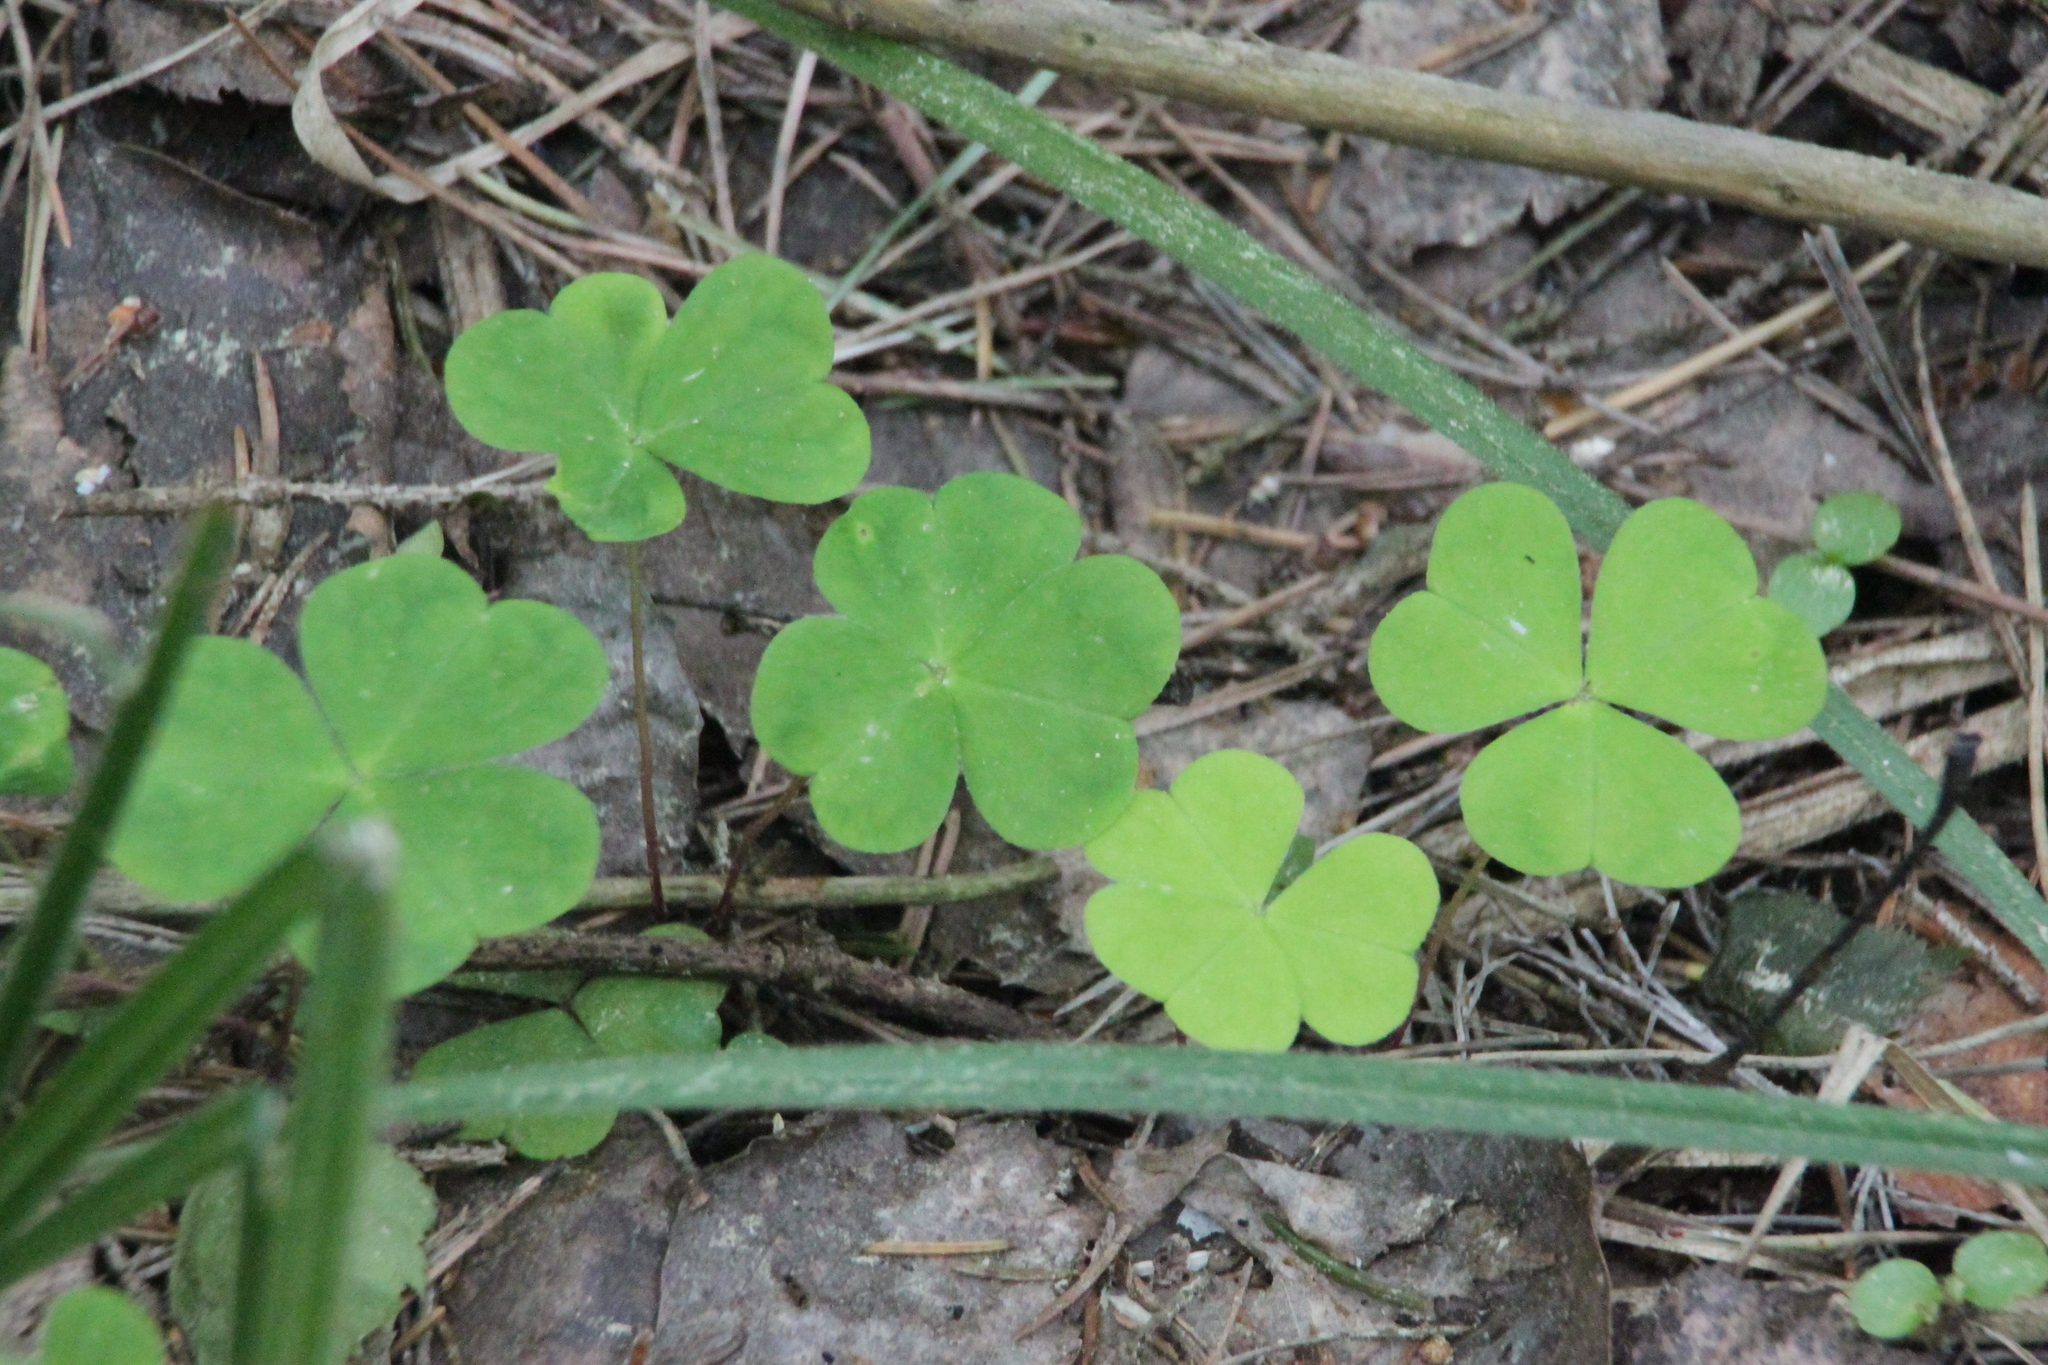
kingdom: Plantae
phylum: Tracheophyta
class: Magnoliopsida
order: Oxalidales
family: Oxalidaceae
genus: Oxalis
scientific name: Oxalis acetosella
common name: Wood-sorrel
